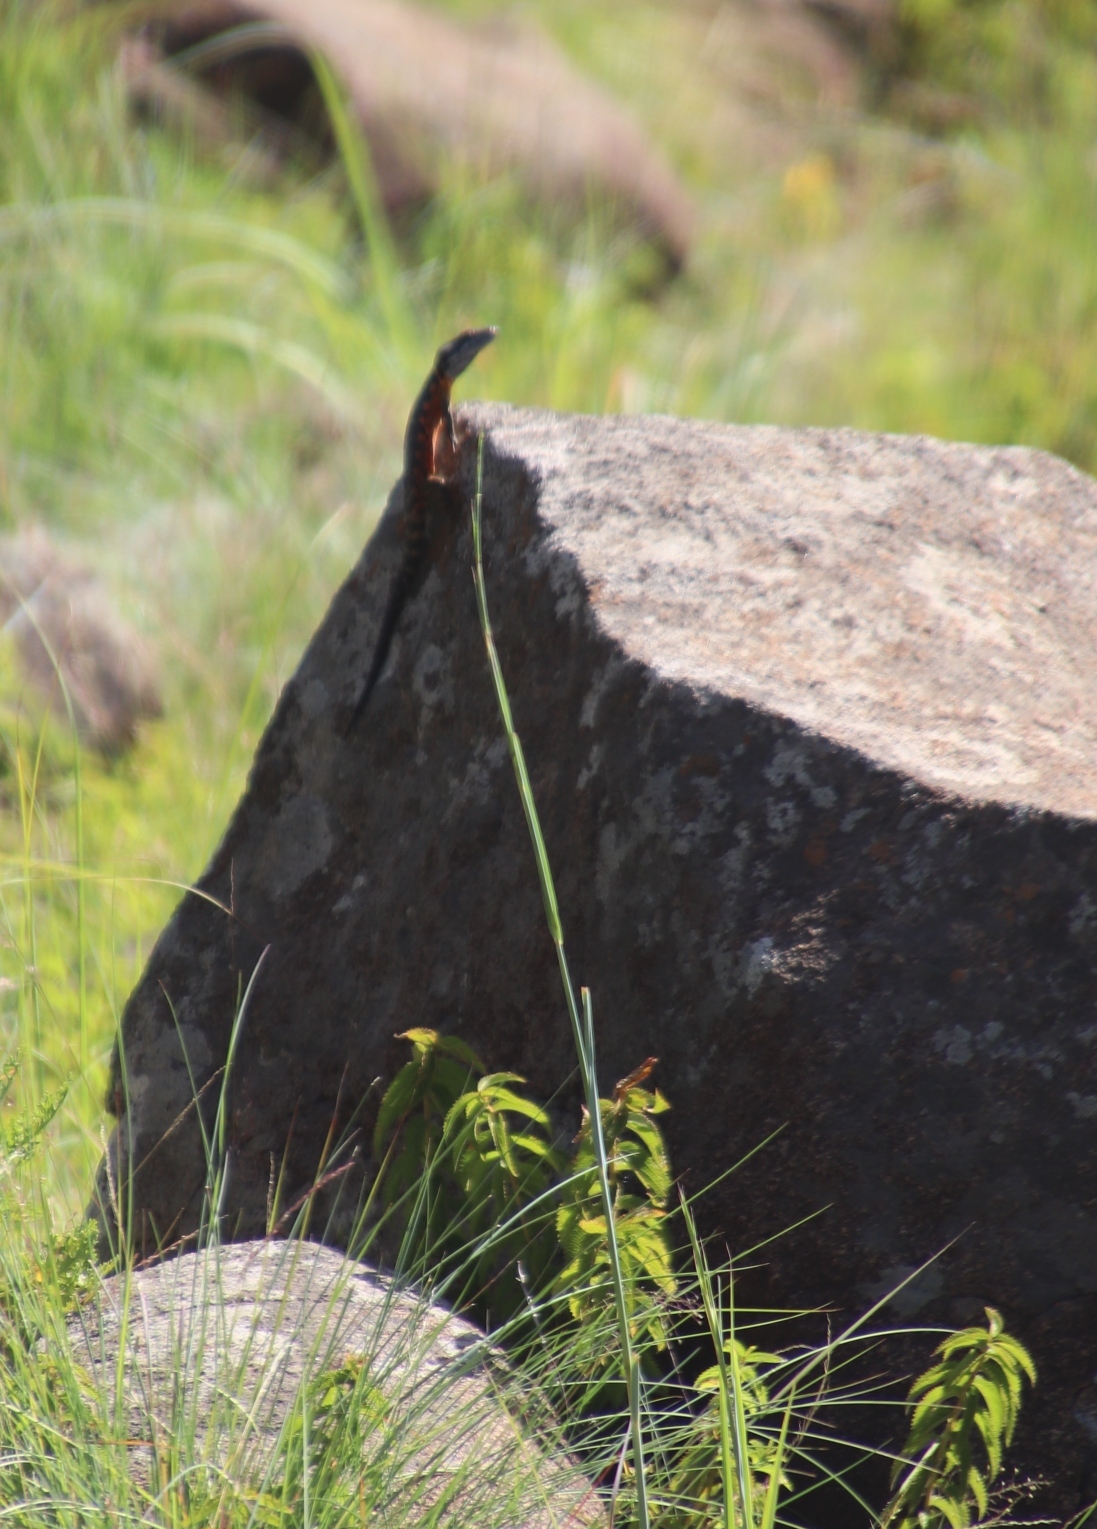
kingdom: Animalia
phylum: Chordata
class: Squamata
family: Cordylidae
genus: Pseudocordylus
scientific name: Pseudocordylus melanotus
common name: Highveld crag lizard
